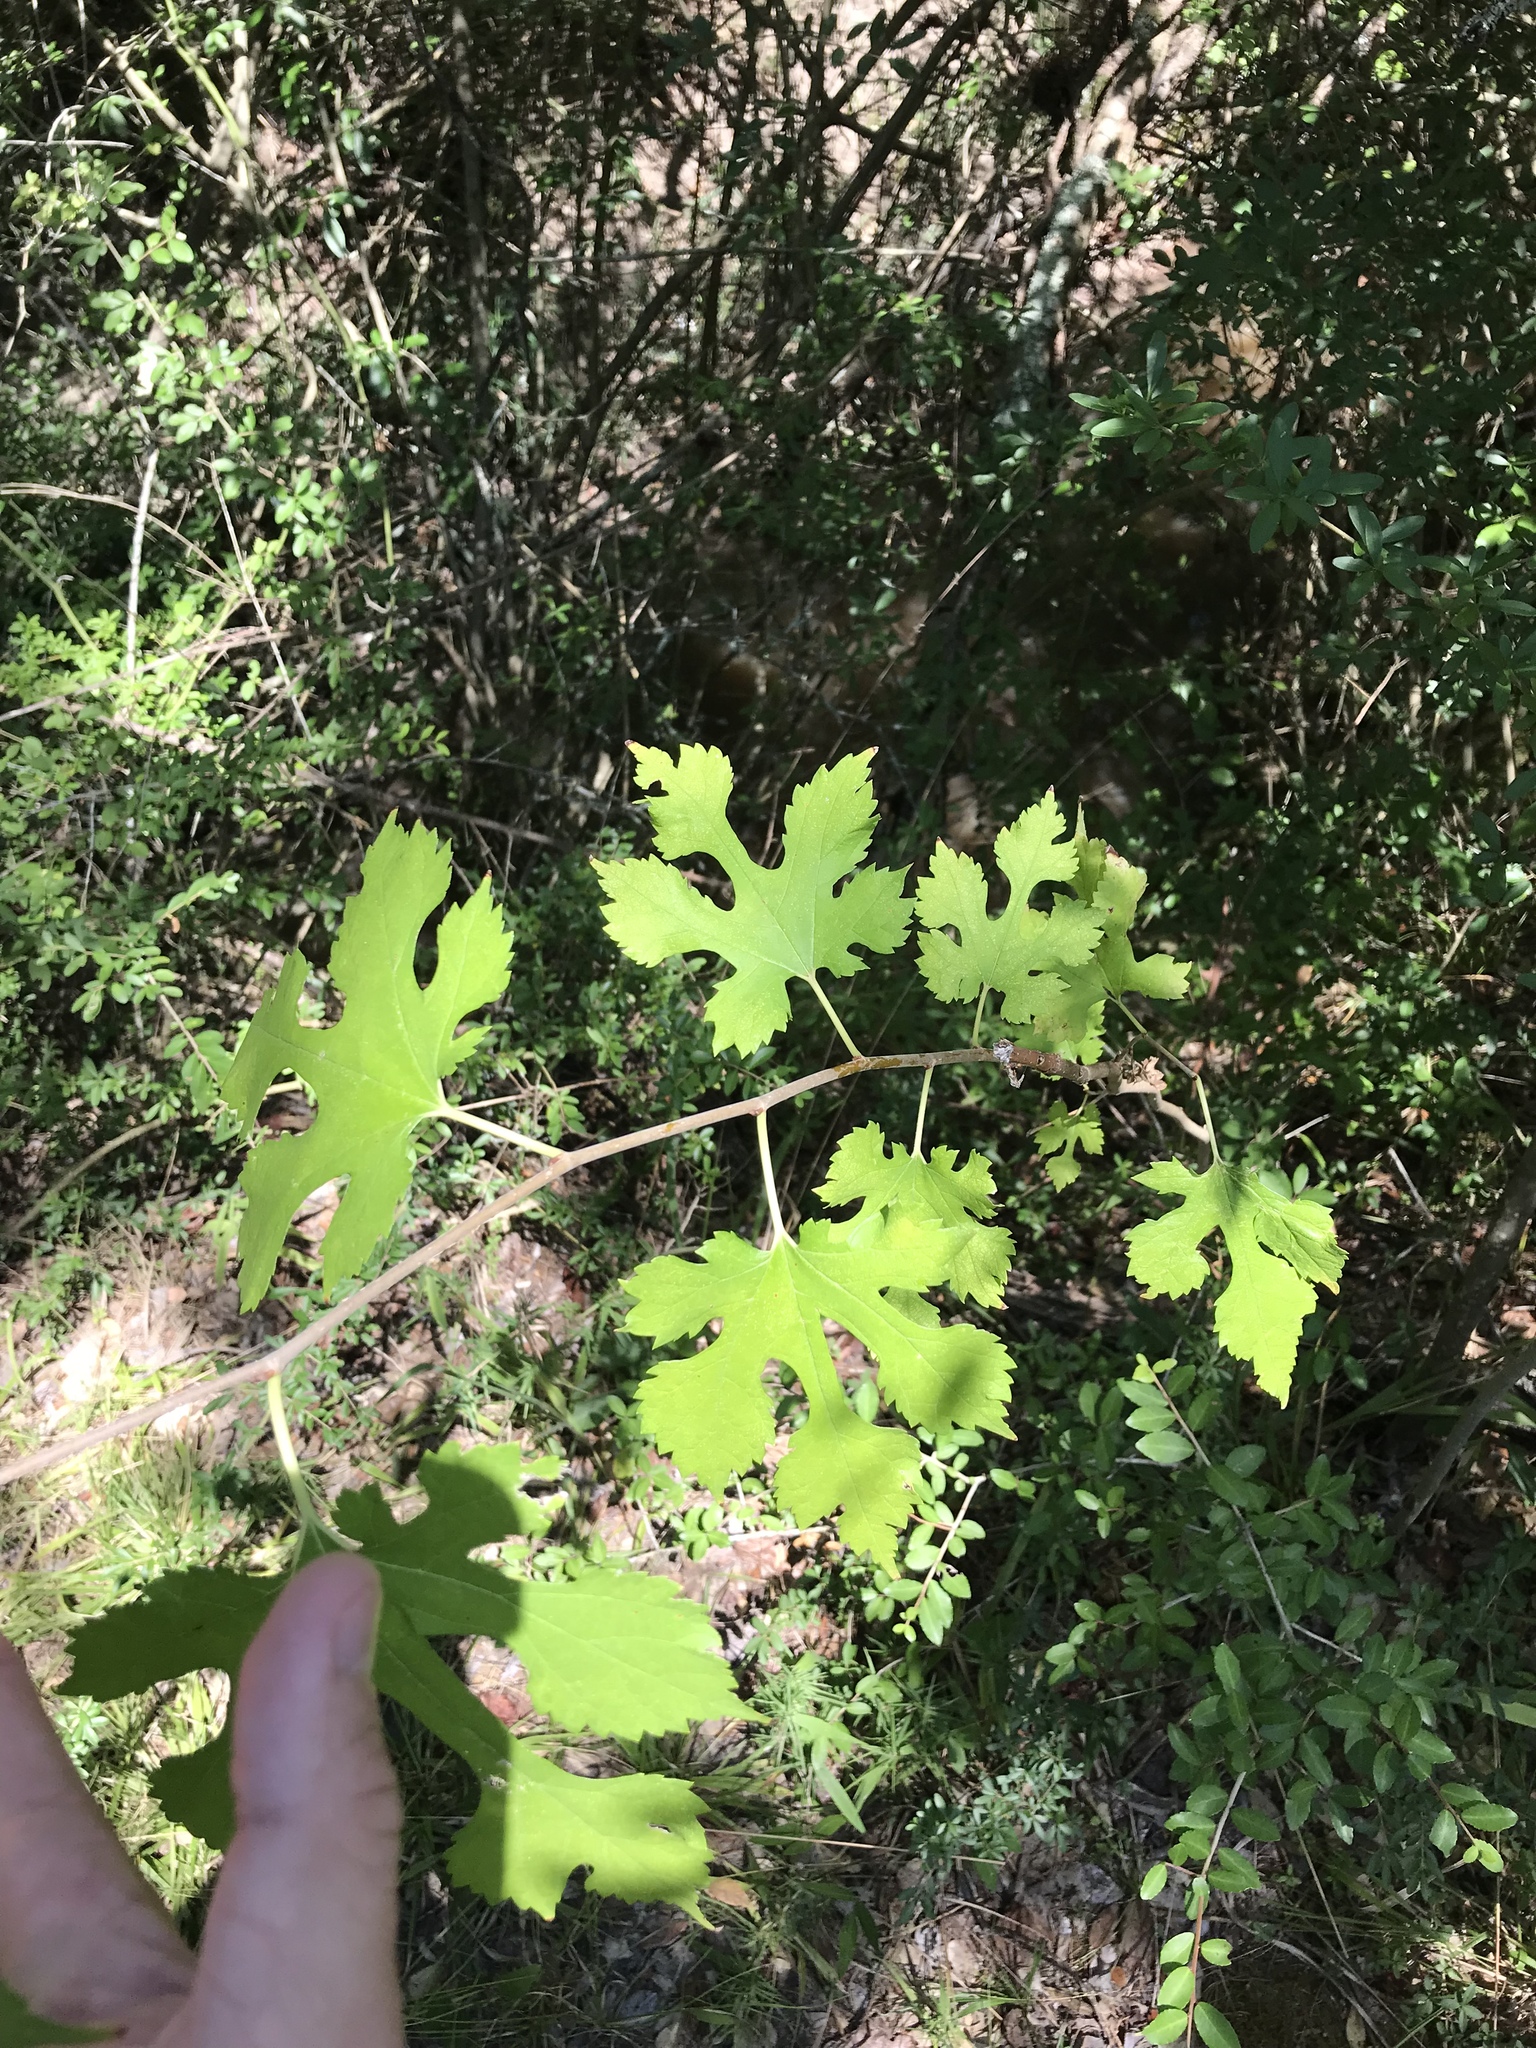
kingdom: Plantae
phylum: Tracheophyta
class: Magnoliopsida
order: Rosales
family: Moraceae
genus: Morus
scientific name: Morus rubra
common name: Red mulberry
